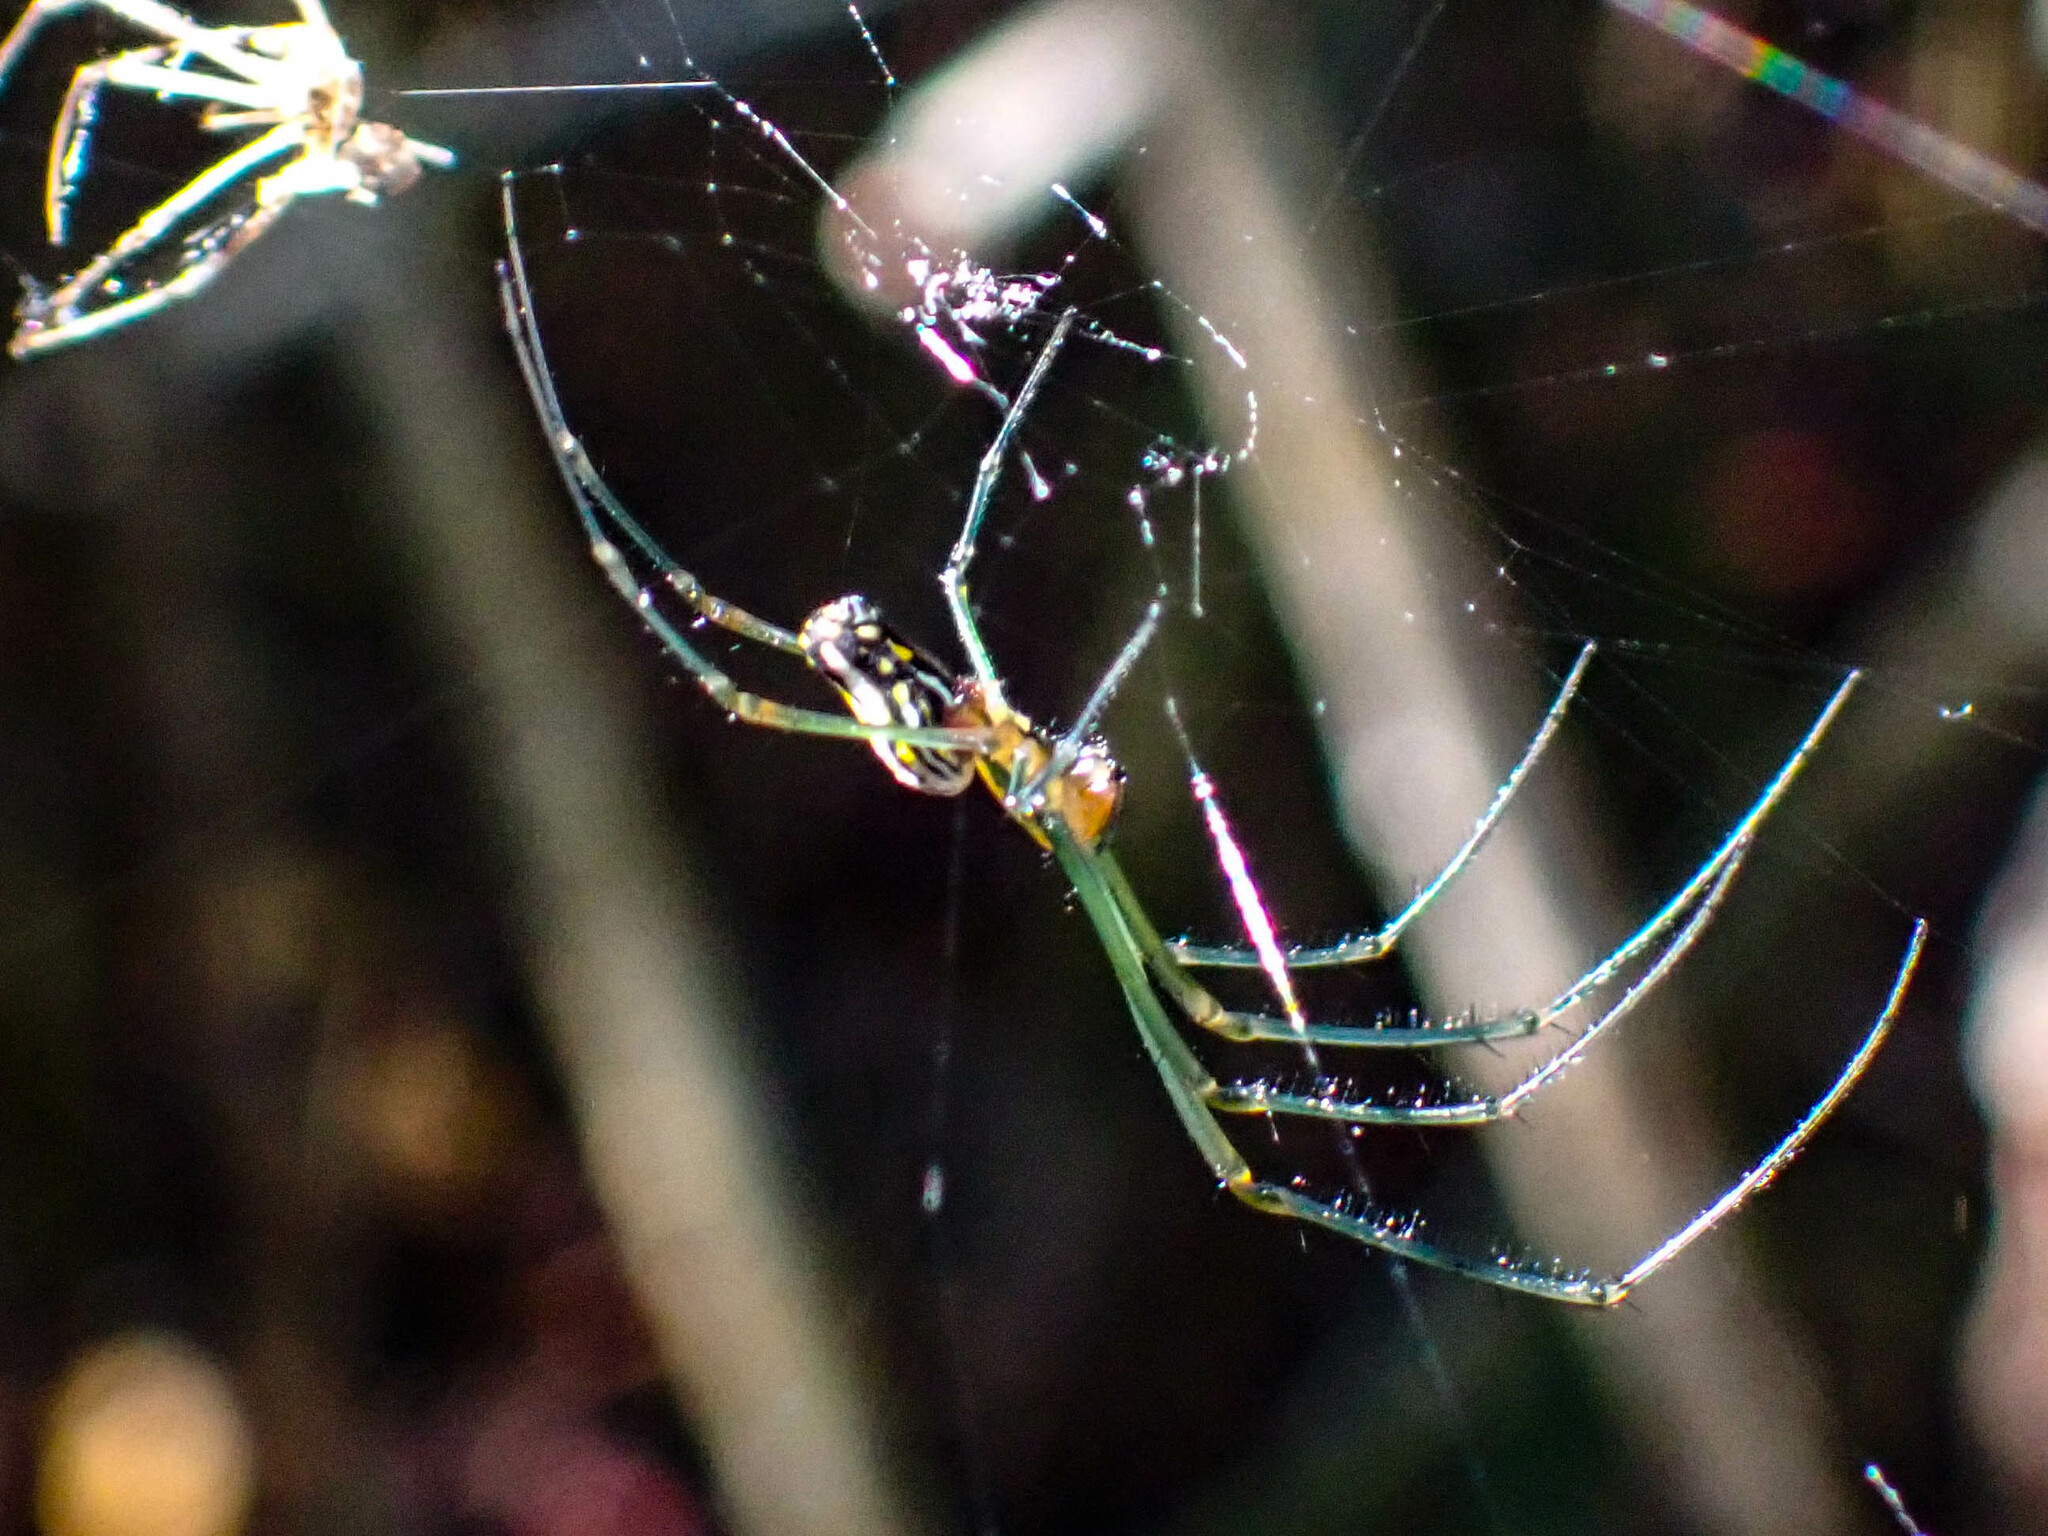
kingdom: Animalia
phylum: Arthropoda
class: Arachnida
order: Araneae
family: Tetragnathidae
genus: Leucauge
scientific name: Leucauge argyra
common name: Longjawed orb weavers
